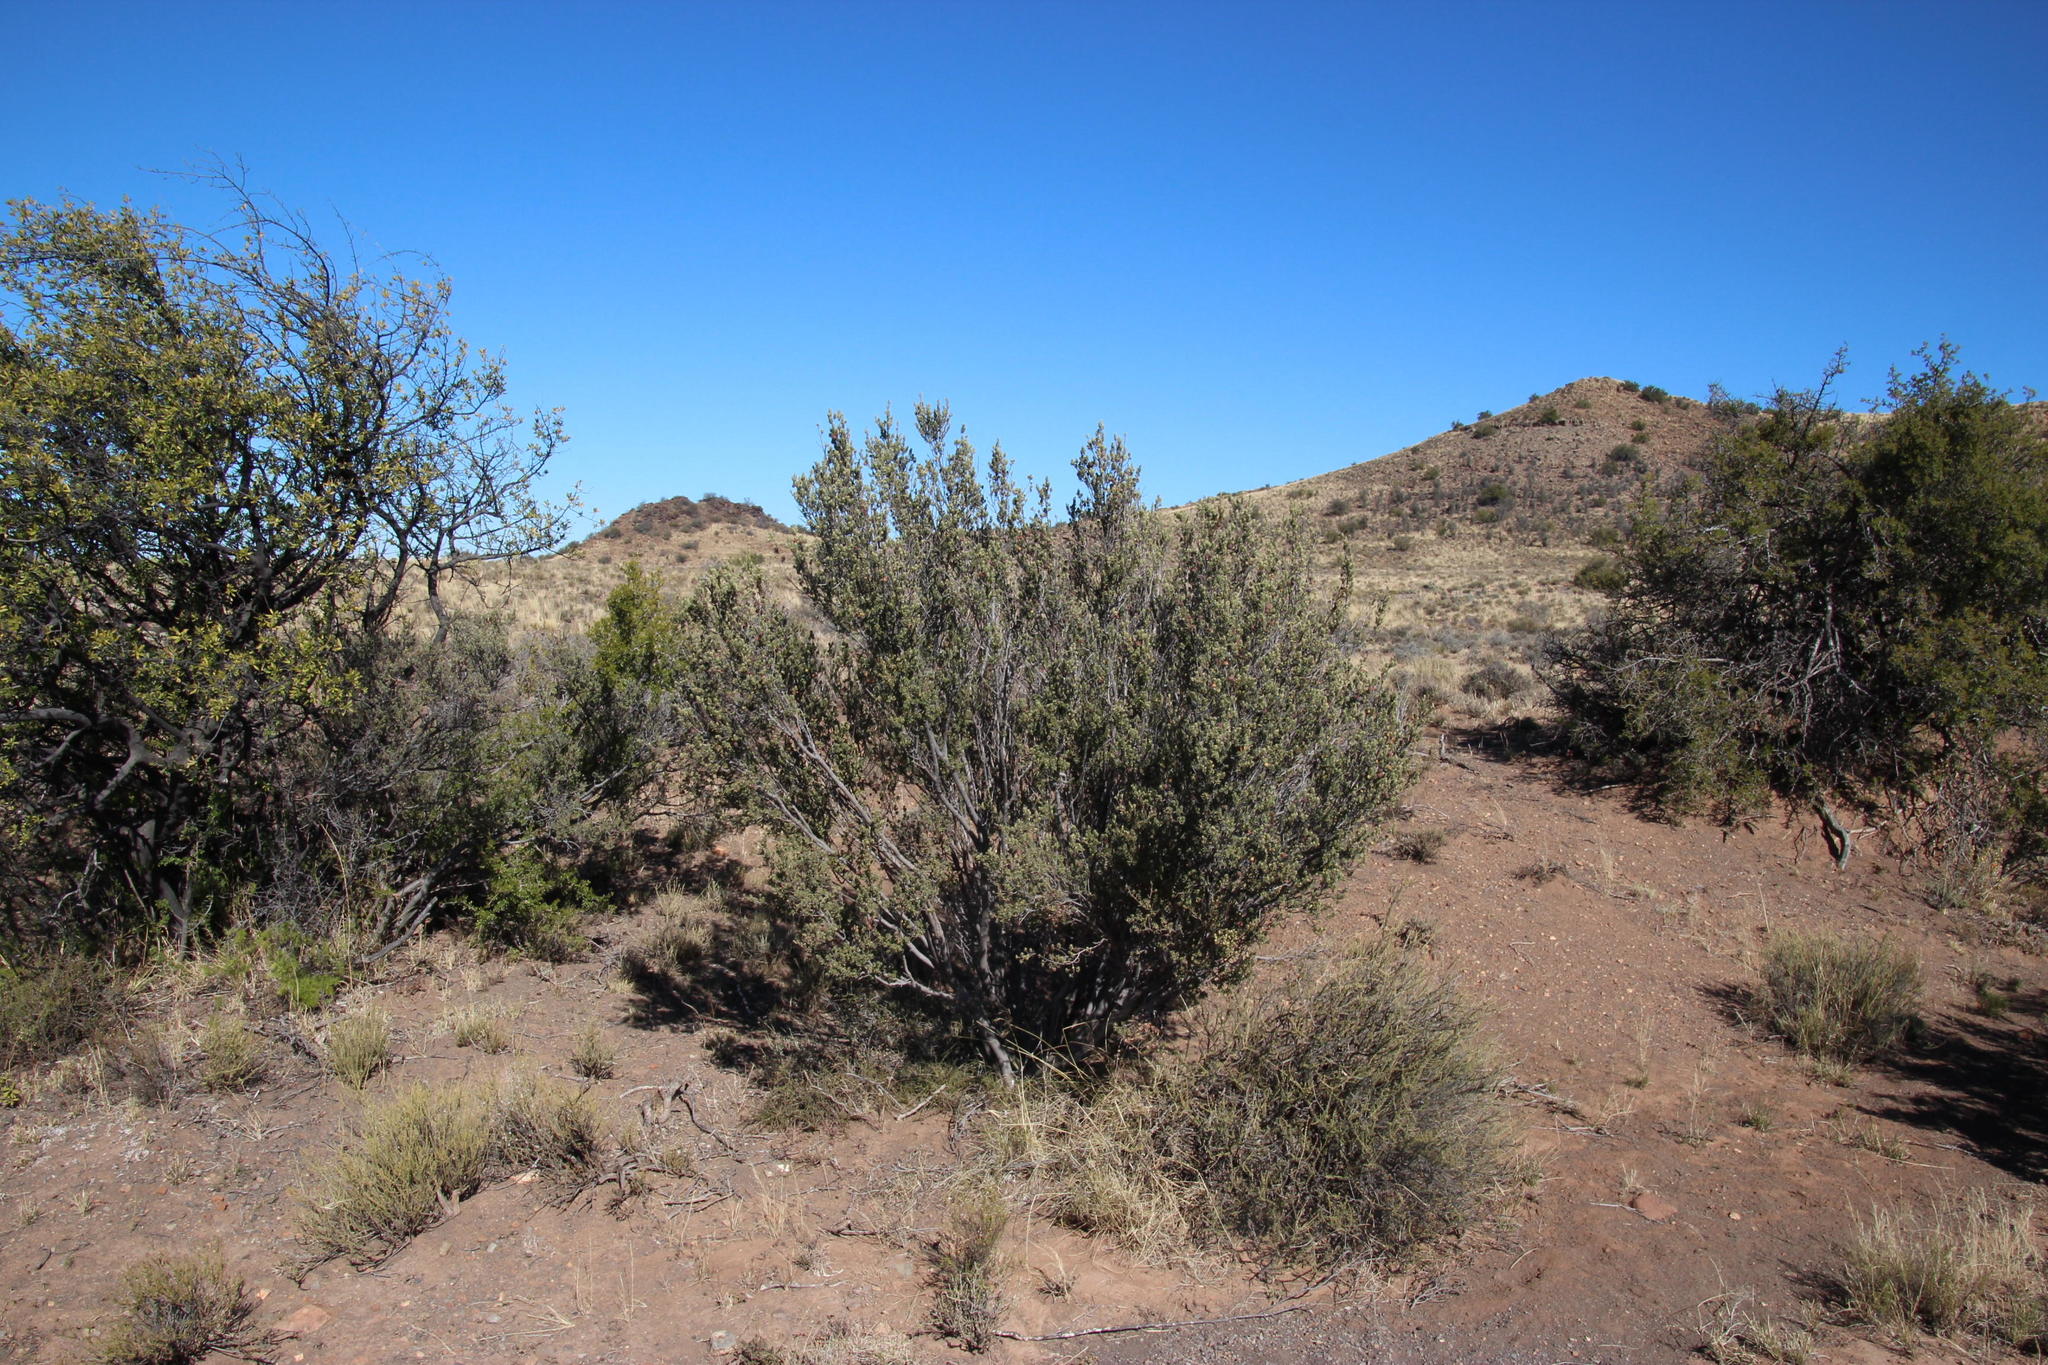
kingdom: Plantae
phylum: Tracheophyta
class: Magnoliopsida
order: Ericales
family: Ebenaceae
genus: Diospyros
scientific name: Diospyros pubescens
